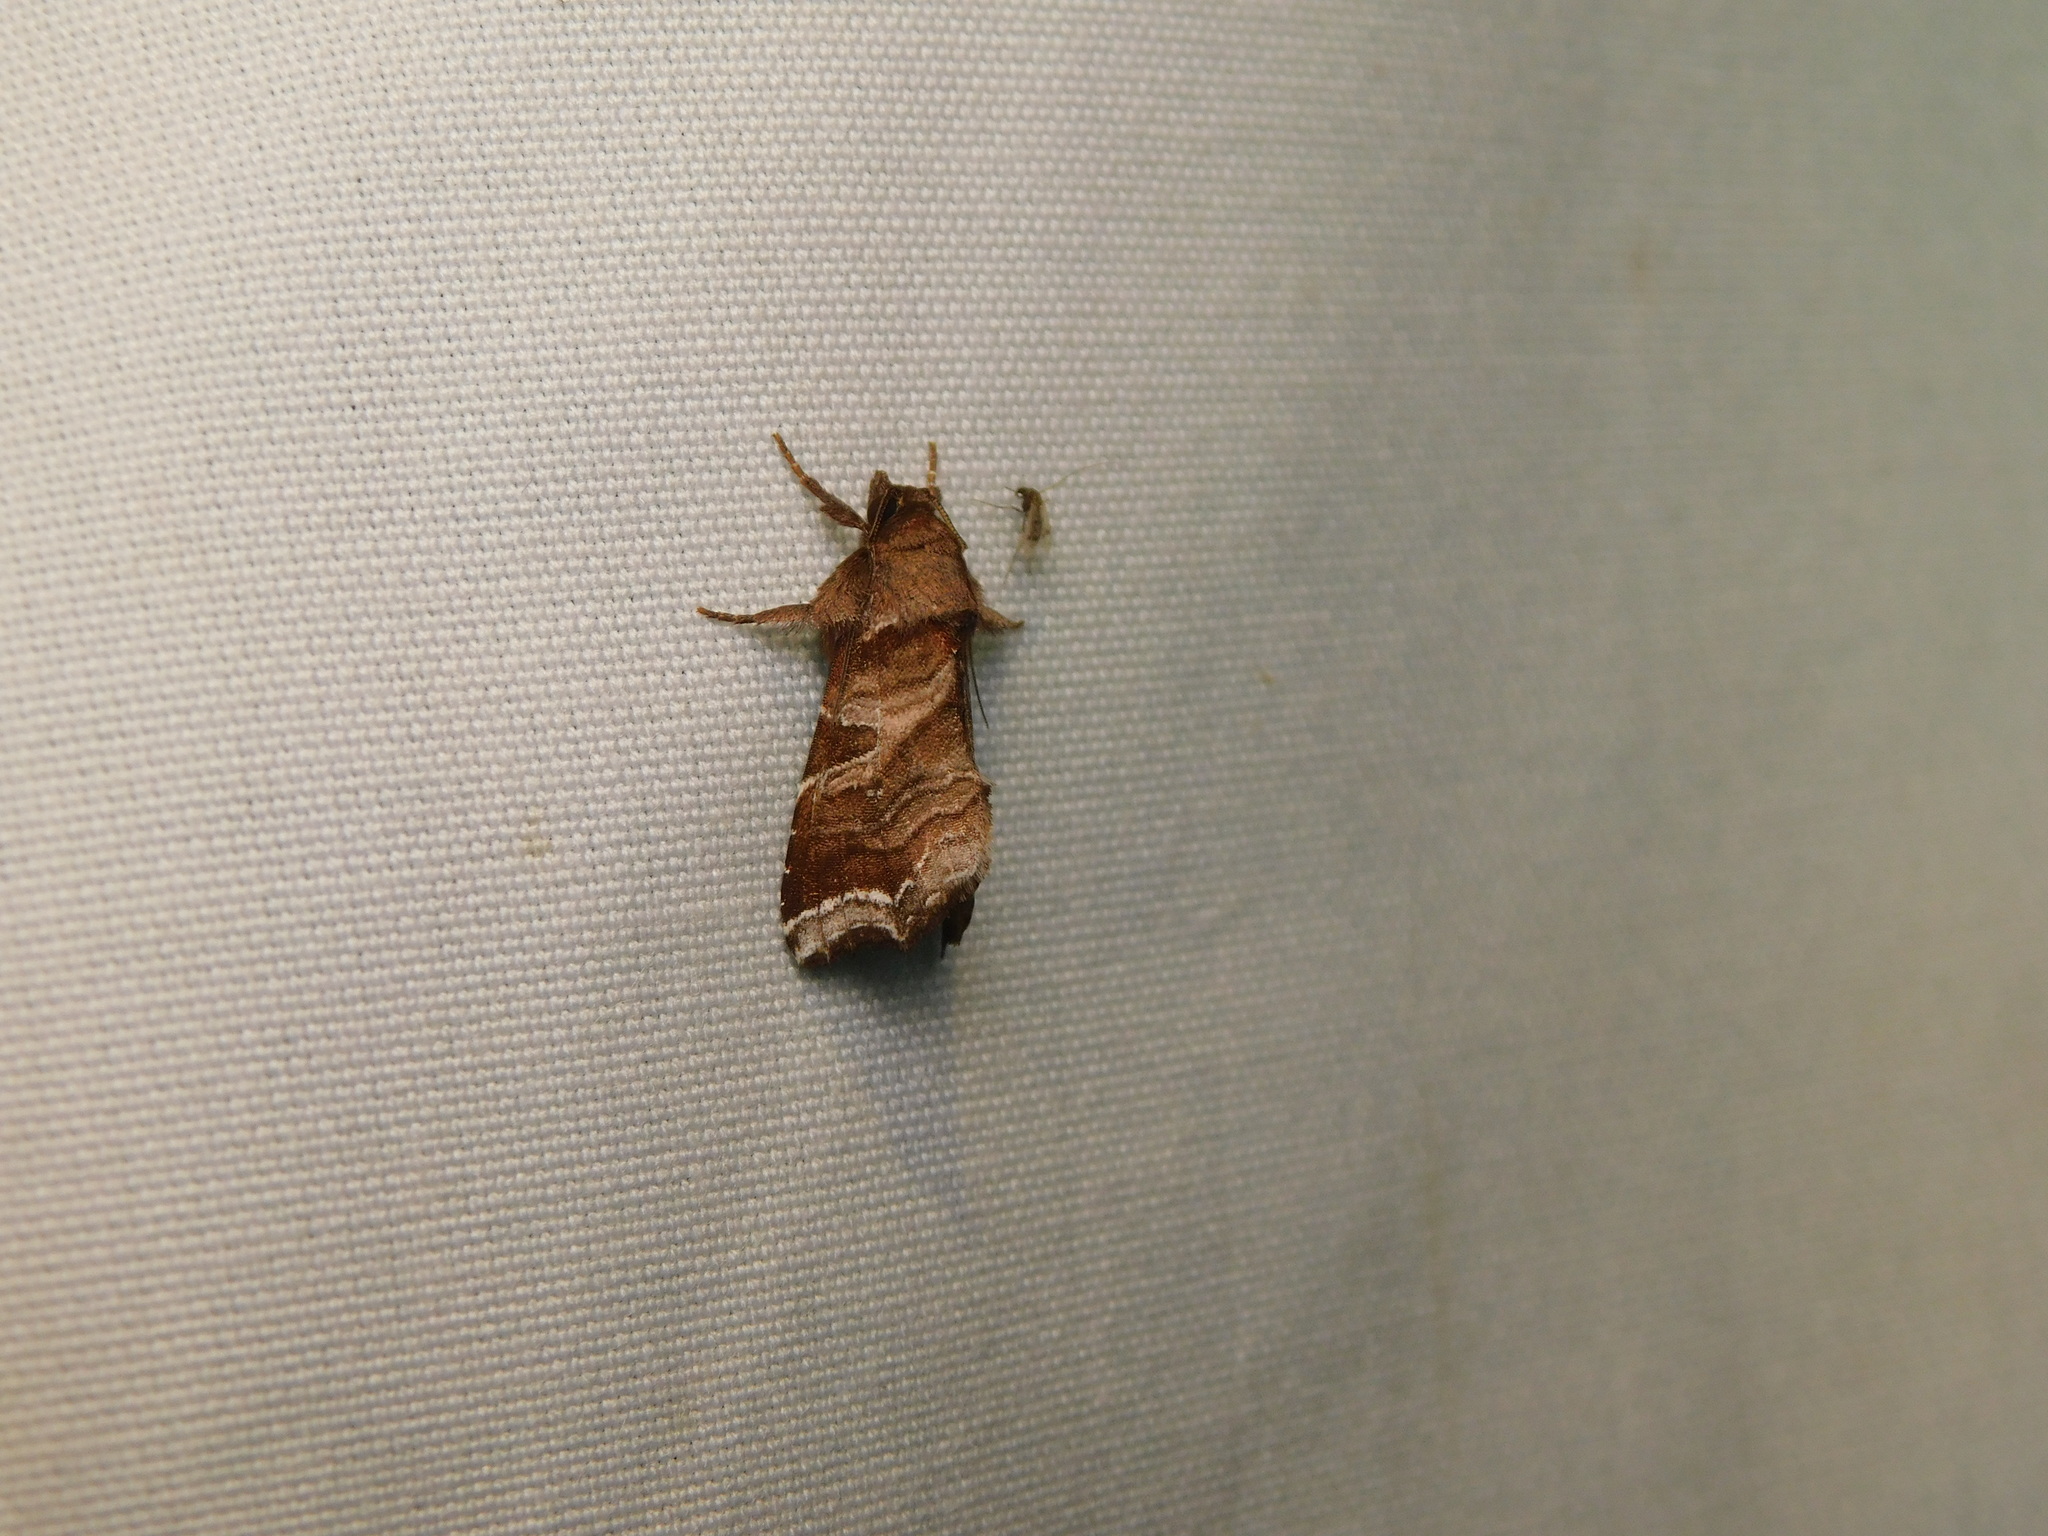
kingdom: Animalia
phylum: Arthropoda
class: Insecta
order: Lepidoptera
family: Noctuidae
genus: Callopistria
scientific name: Callopistria placodoides
